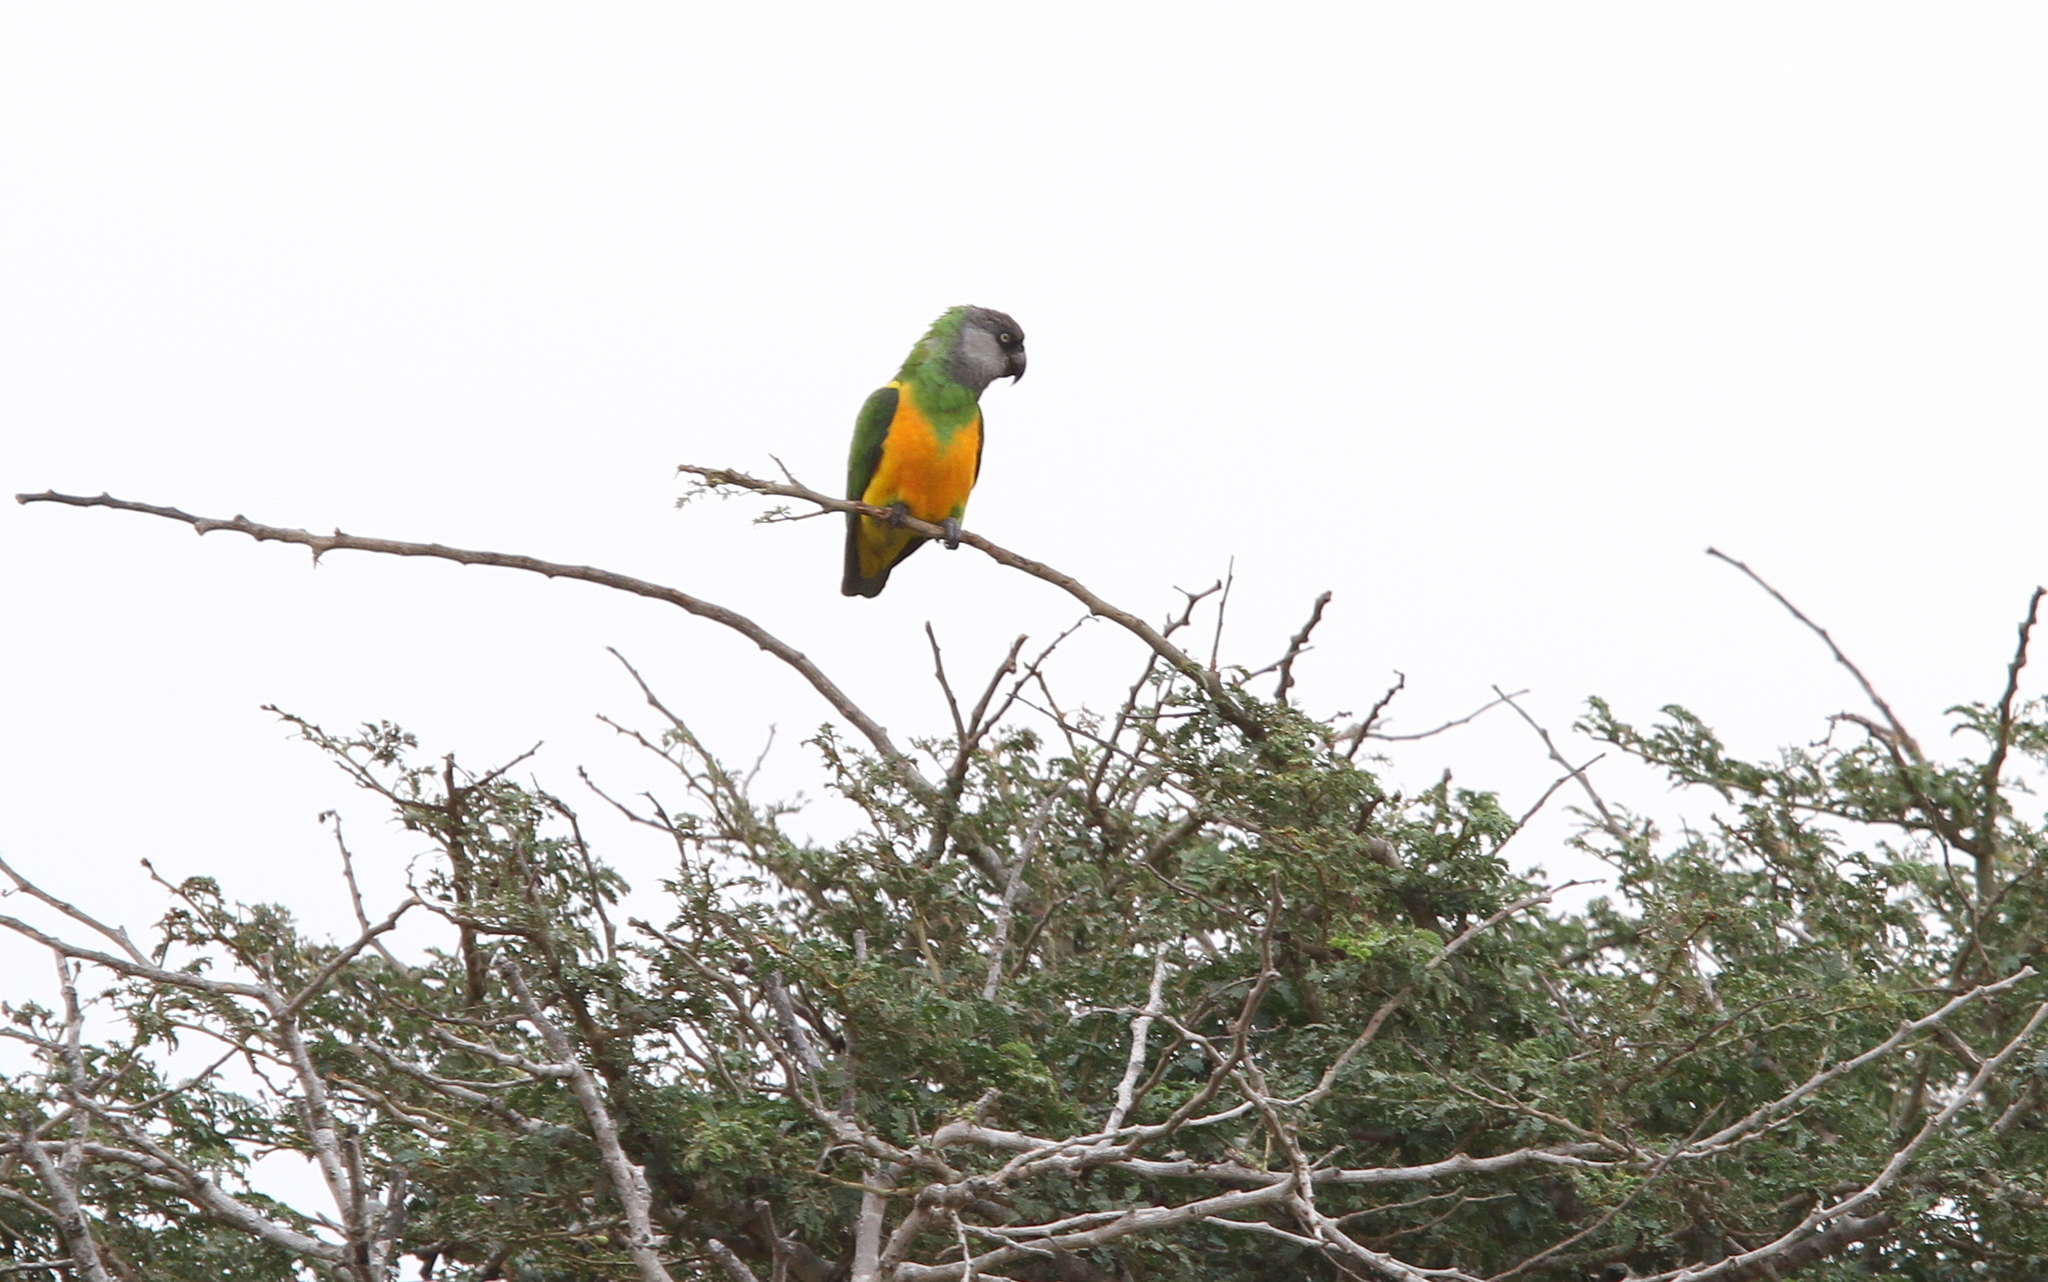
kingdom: Animalia
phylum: Chordata
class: Aves
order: Psittaciformes
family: Psittacidae
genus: Poicephalus
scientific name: Poicephalus senegalus
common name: Senegal parrot
